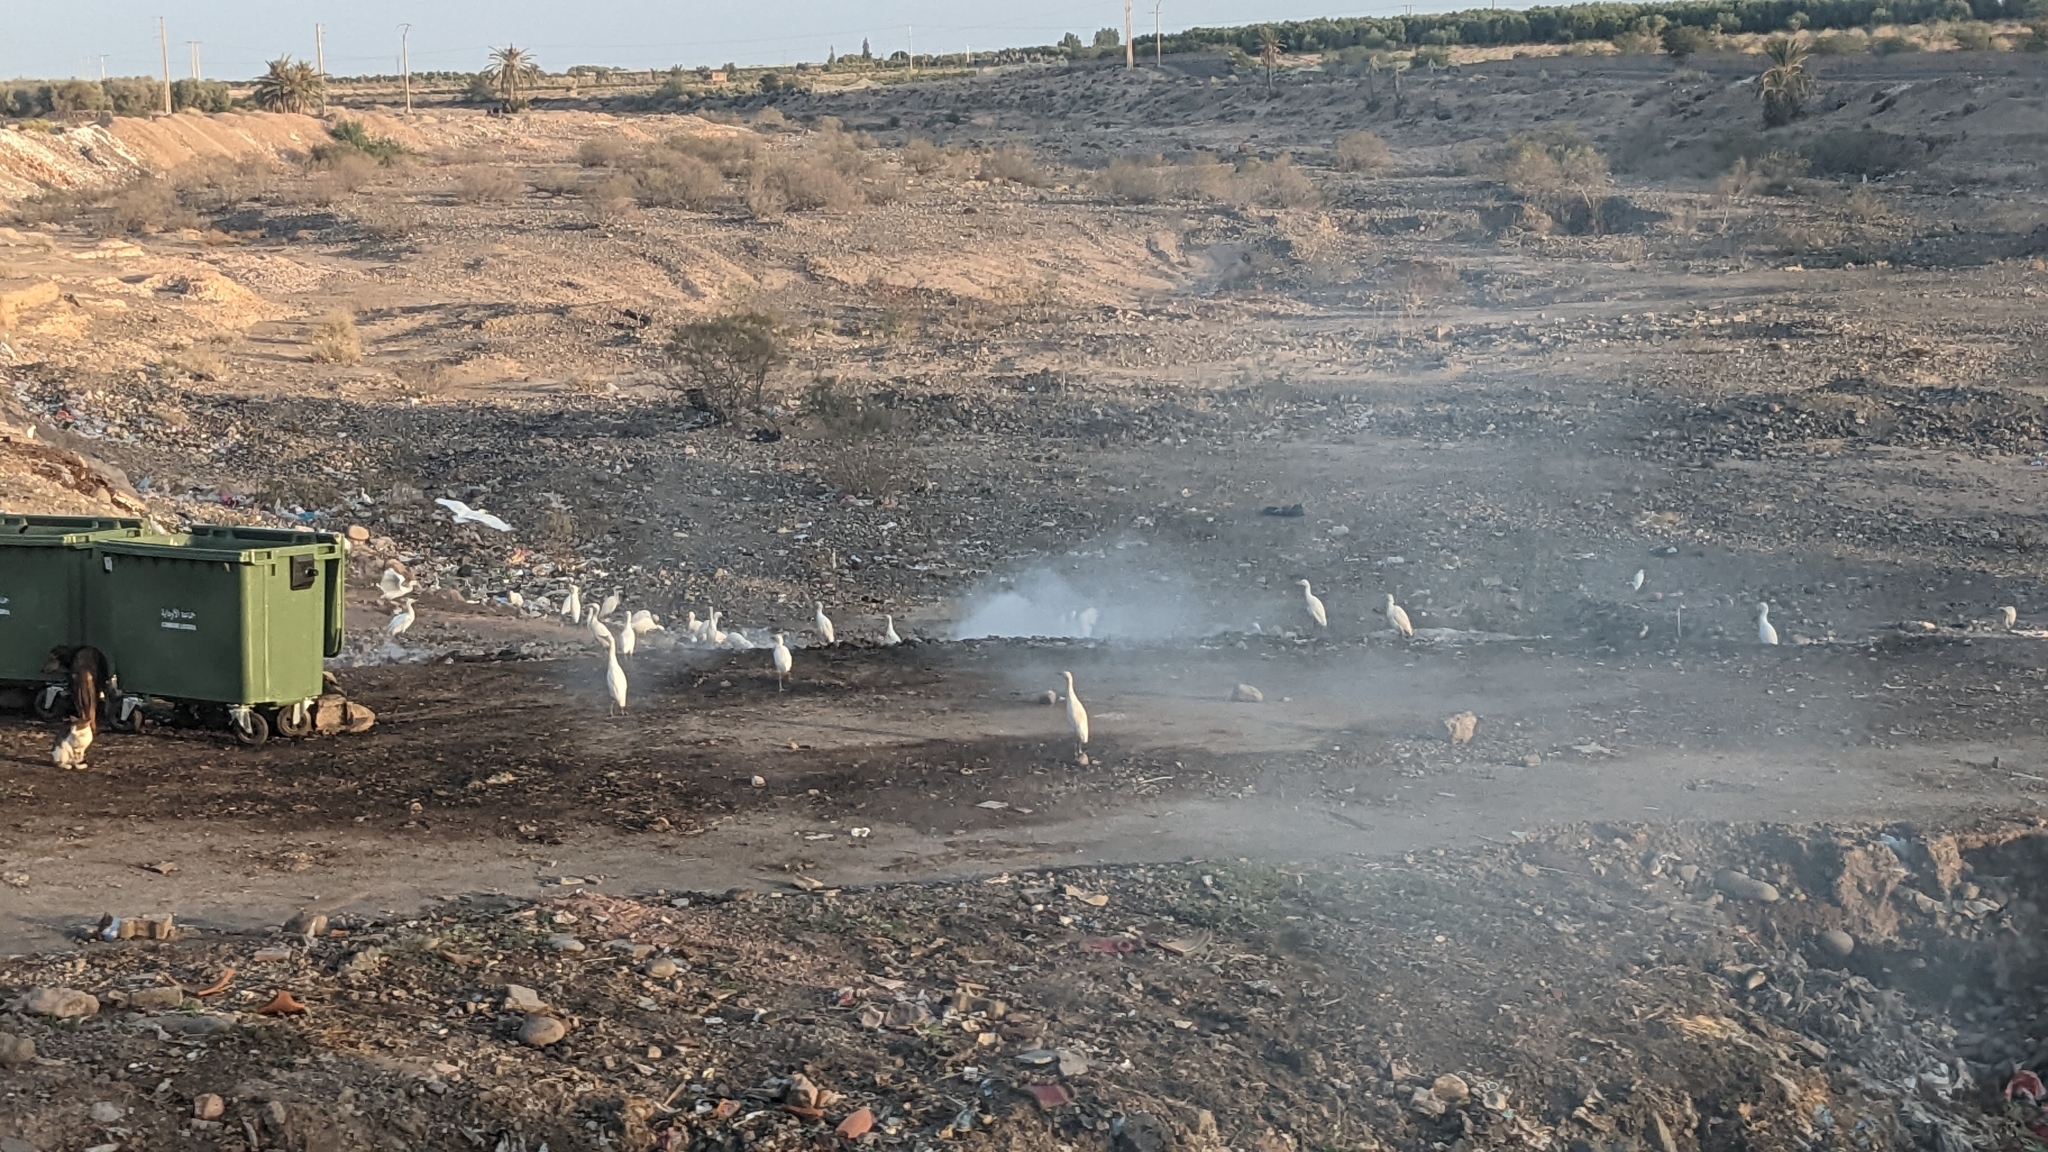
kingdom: Animalia
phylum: Chordata
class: Aves
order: Pelecaniformes
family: Ardeidae
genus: Bubulcus
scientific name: Bubulcus ibis
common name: Cattle egret
